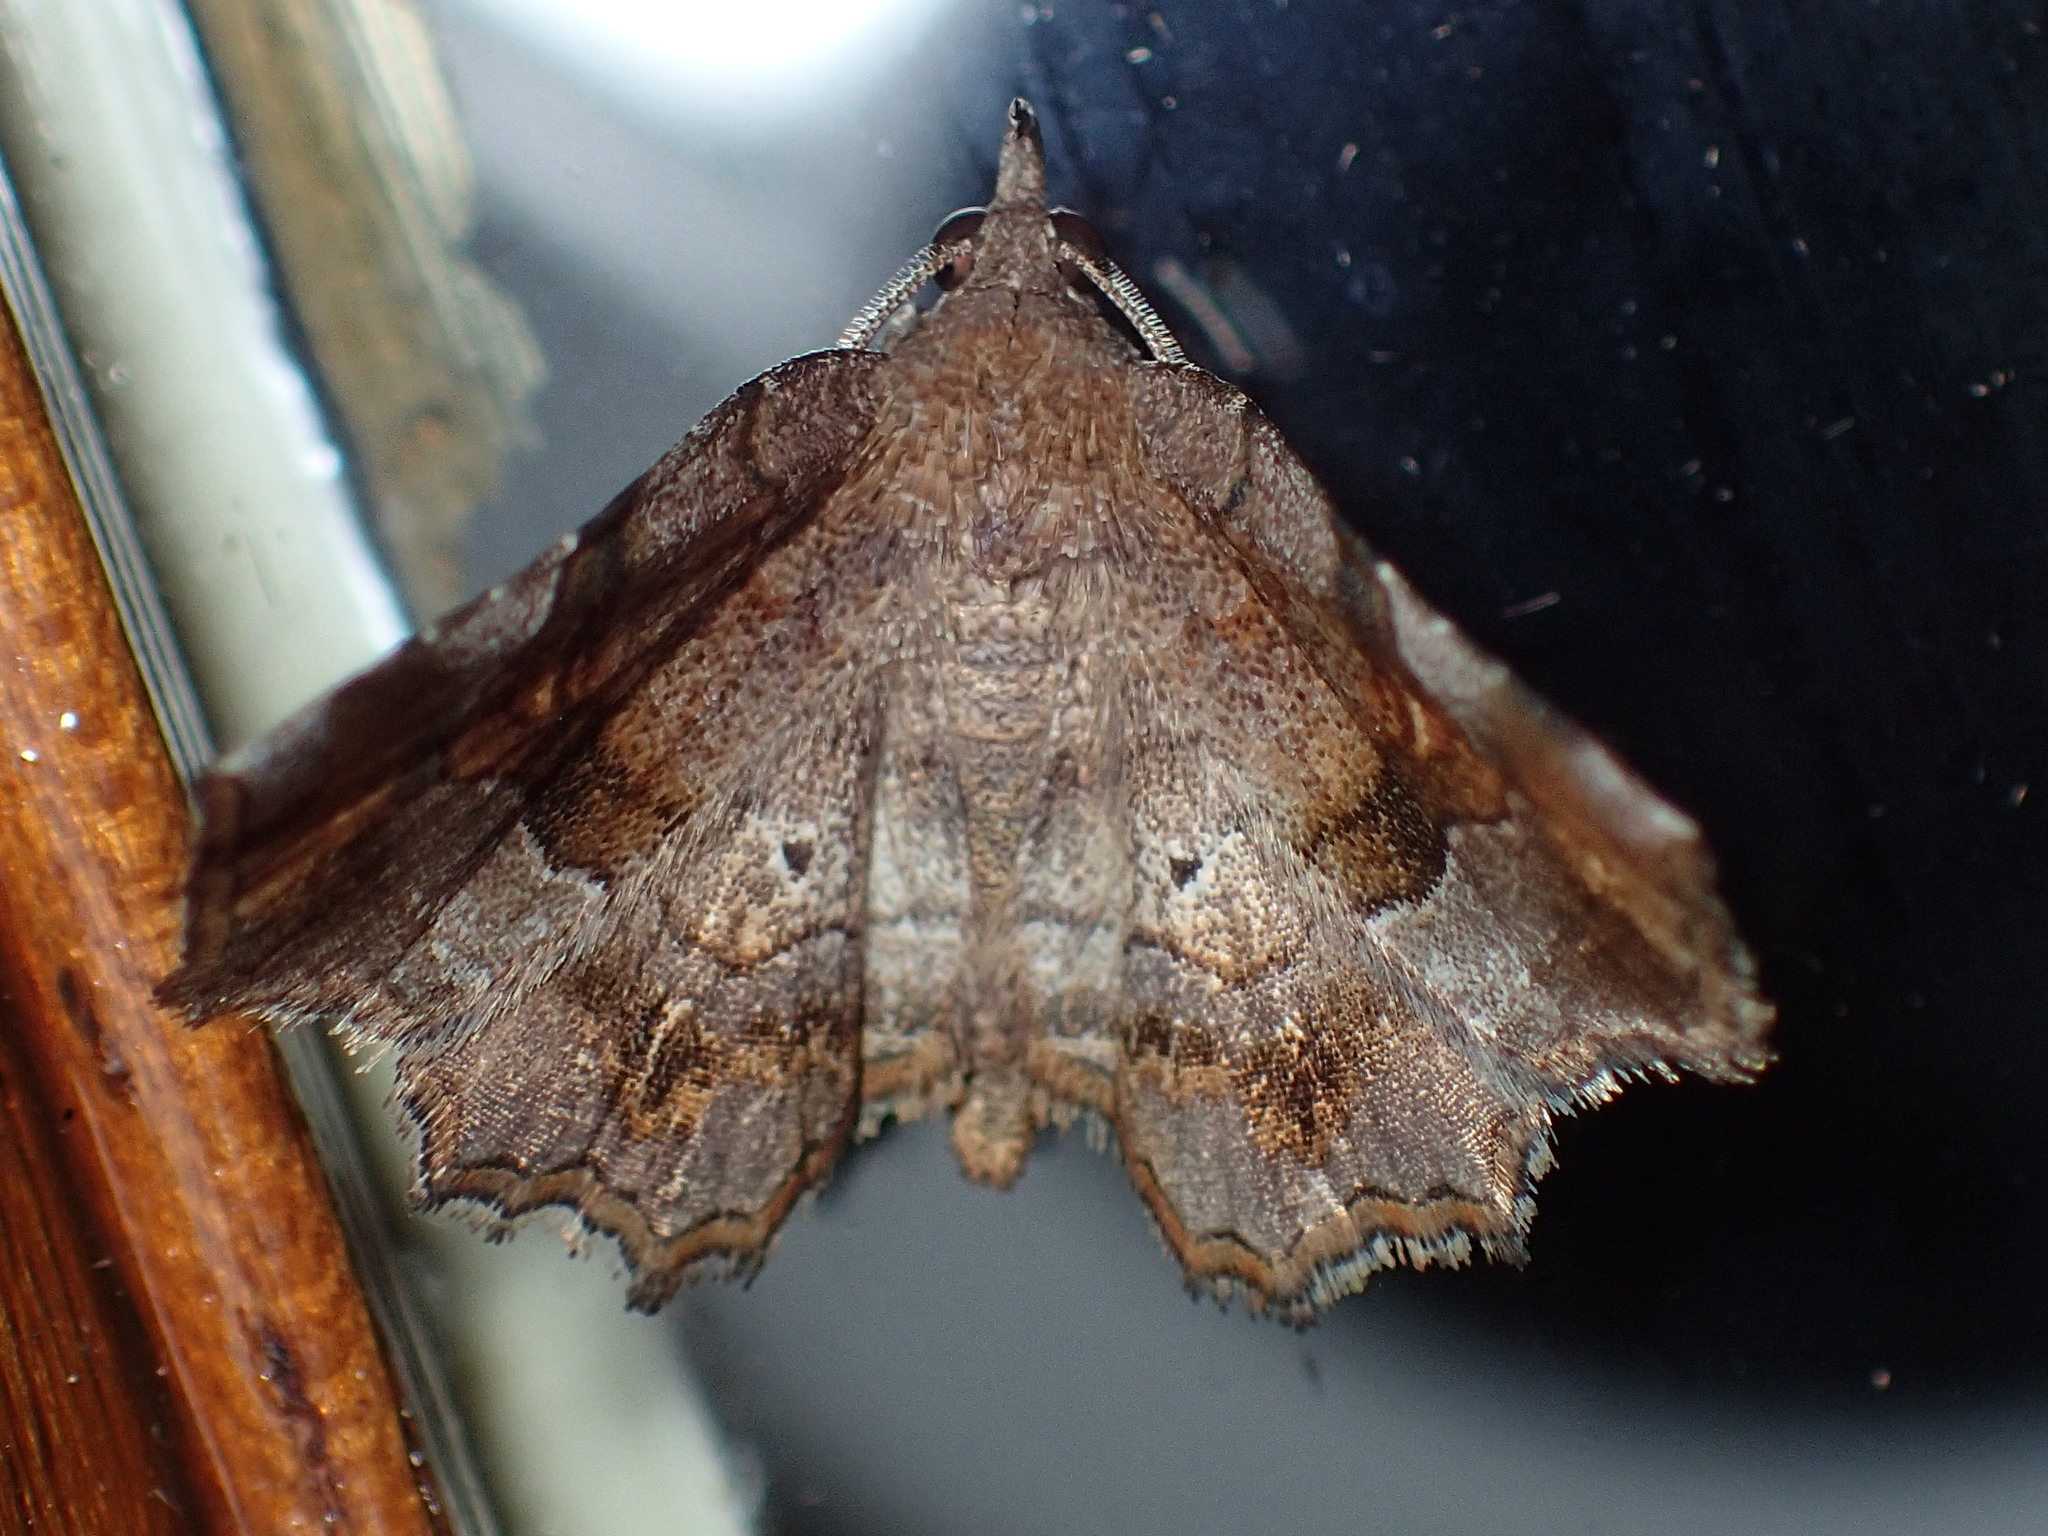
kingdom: Animalia
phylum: Arthropoda
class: Insecta
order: Lepidoptera
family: Erebidae
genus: Pangrapta
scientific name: Pangrapta decoralis
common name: Decorated owlet
